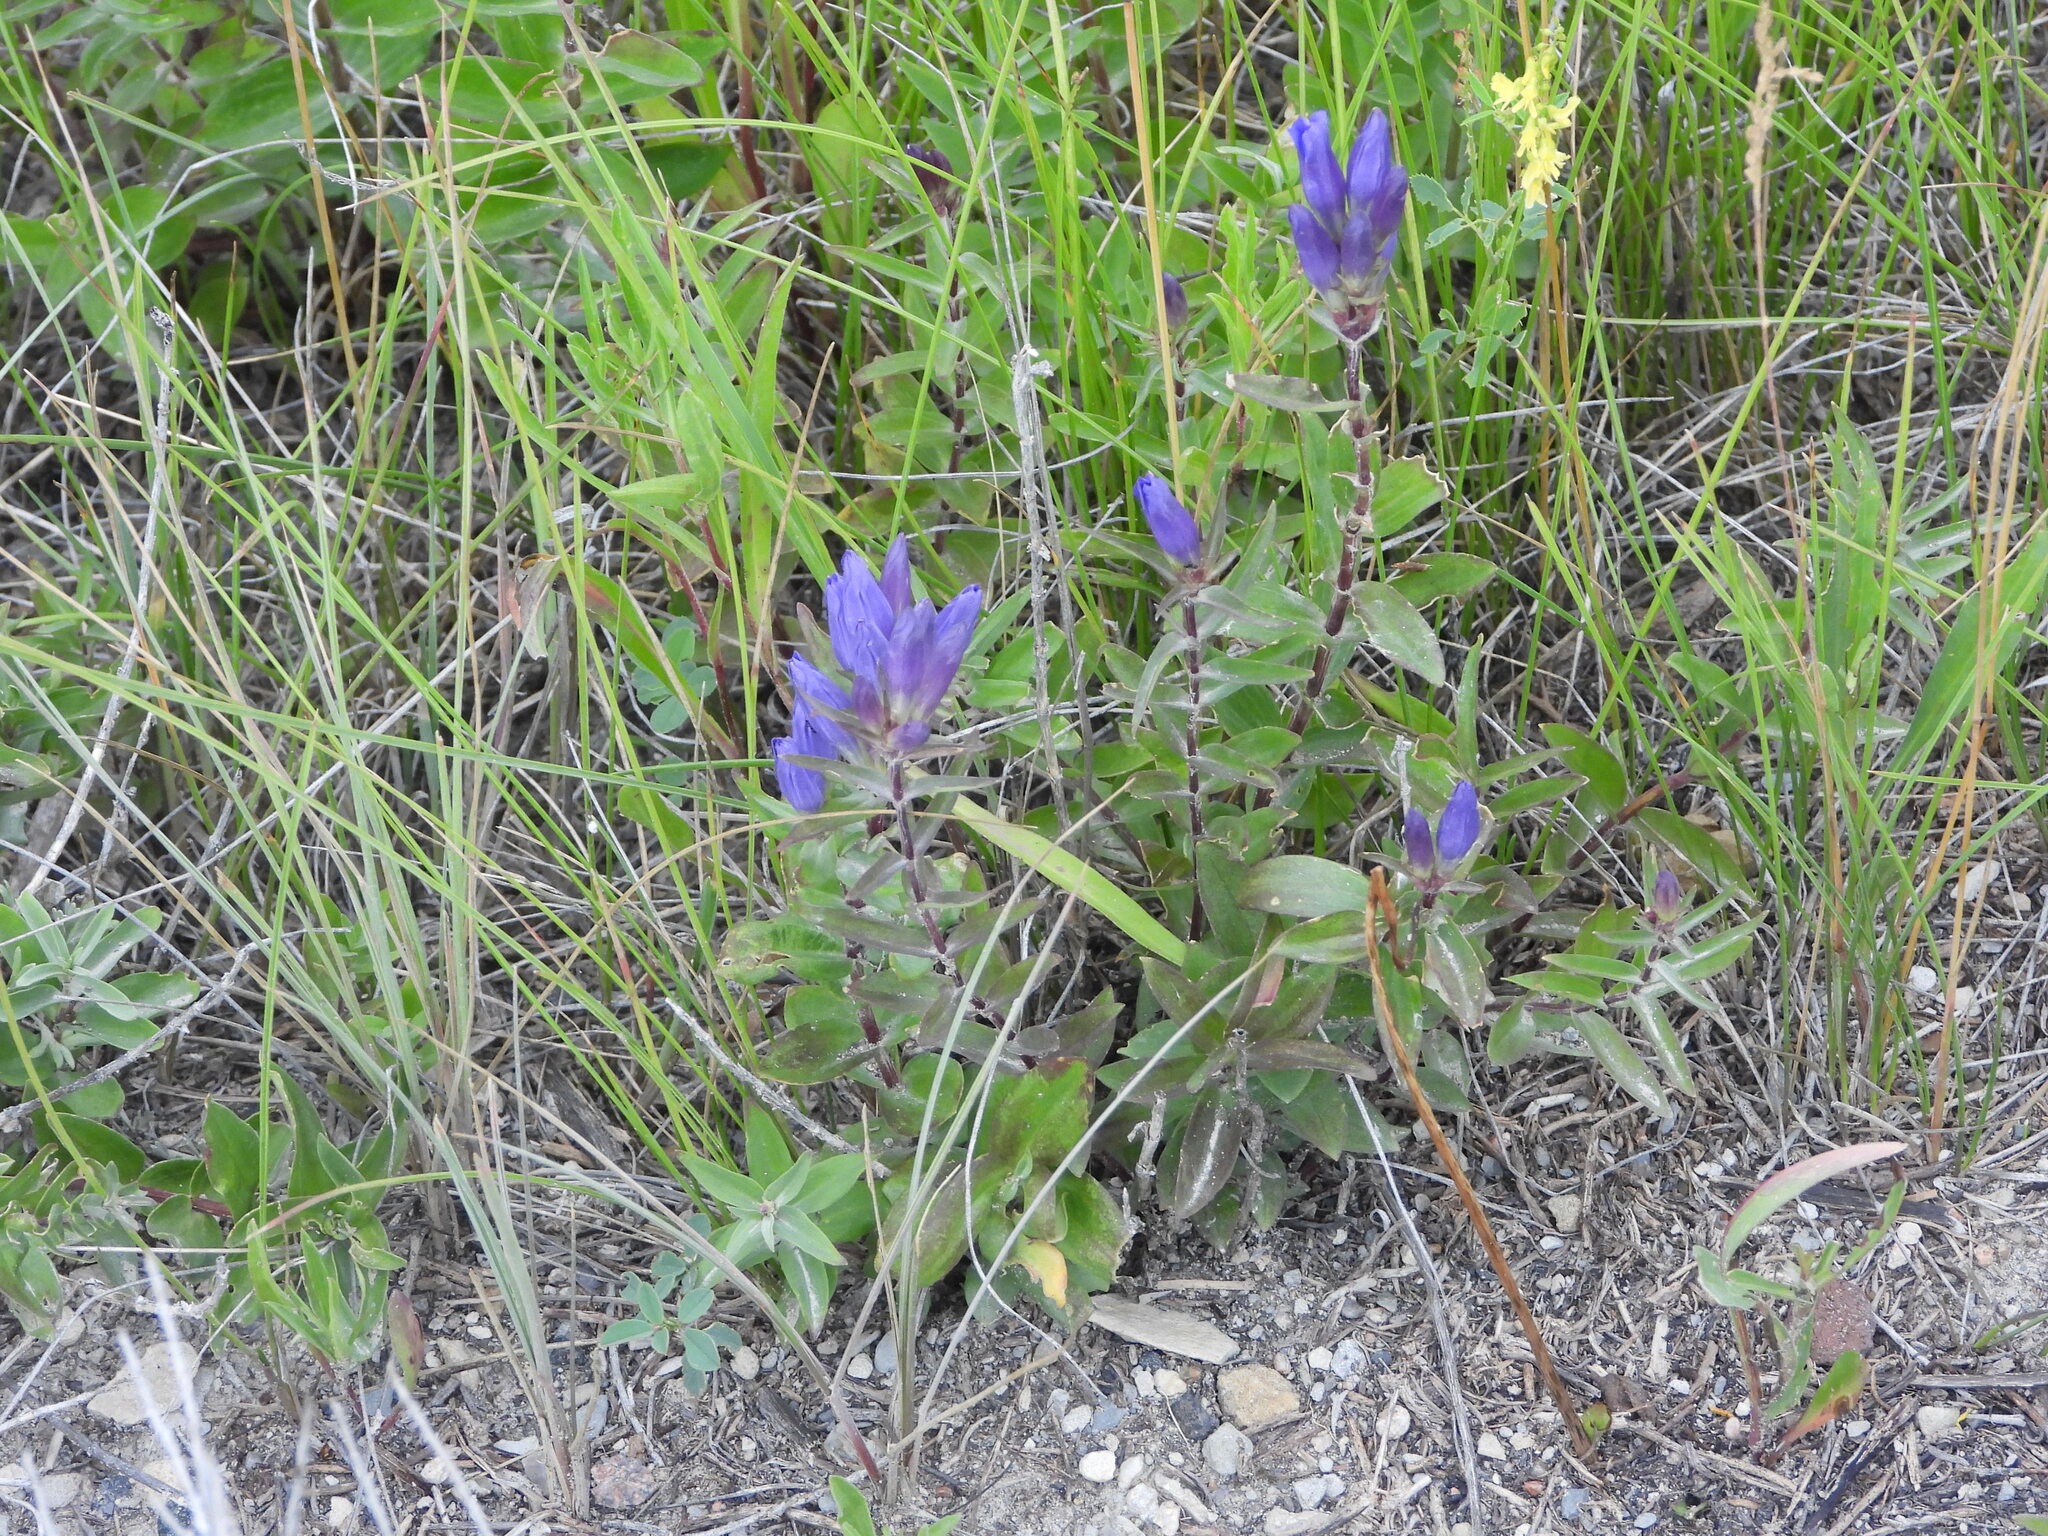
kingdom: Plantae
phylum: Tracheophyta
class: Magnoliopsida
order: Gentianales
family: Gentianaceae
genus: Gentiana
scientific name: Gentiana affinis
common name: Rocky mountain gentian
